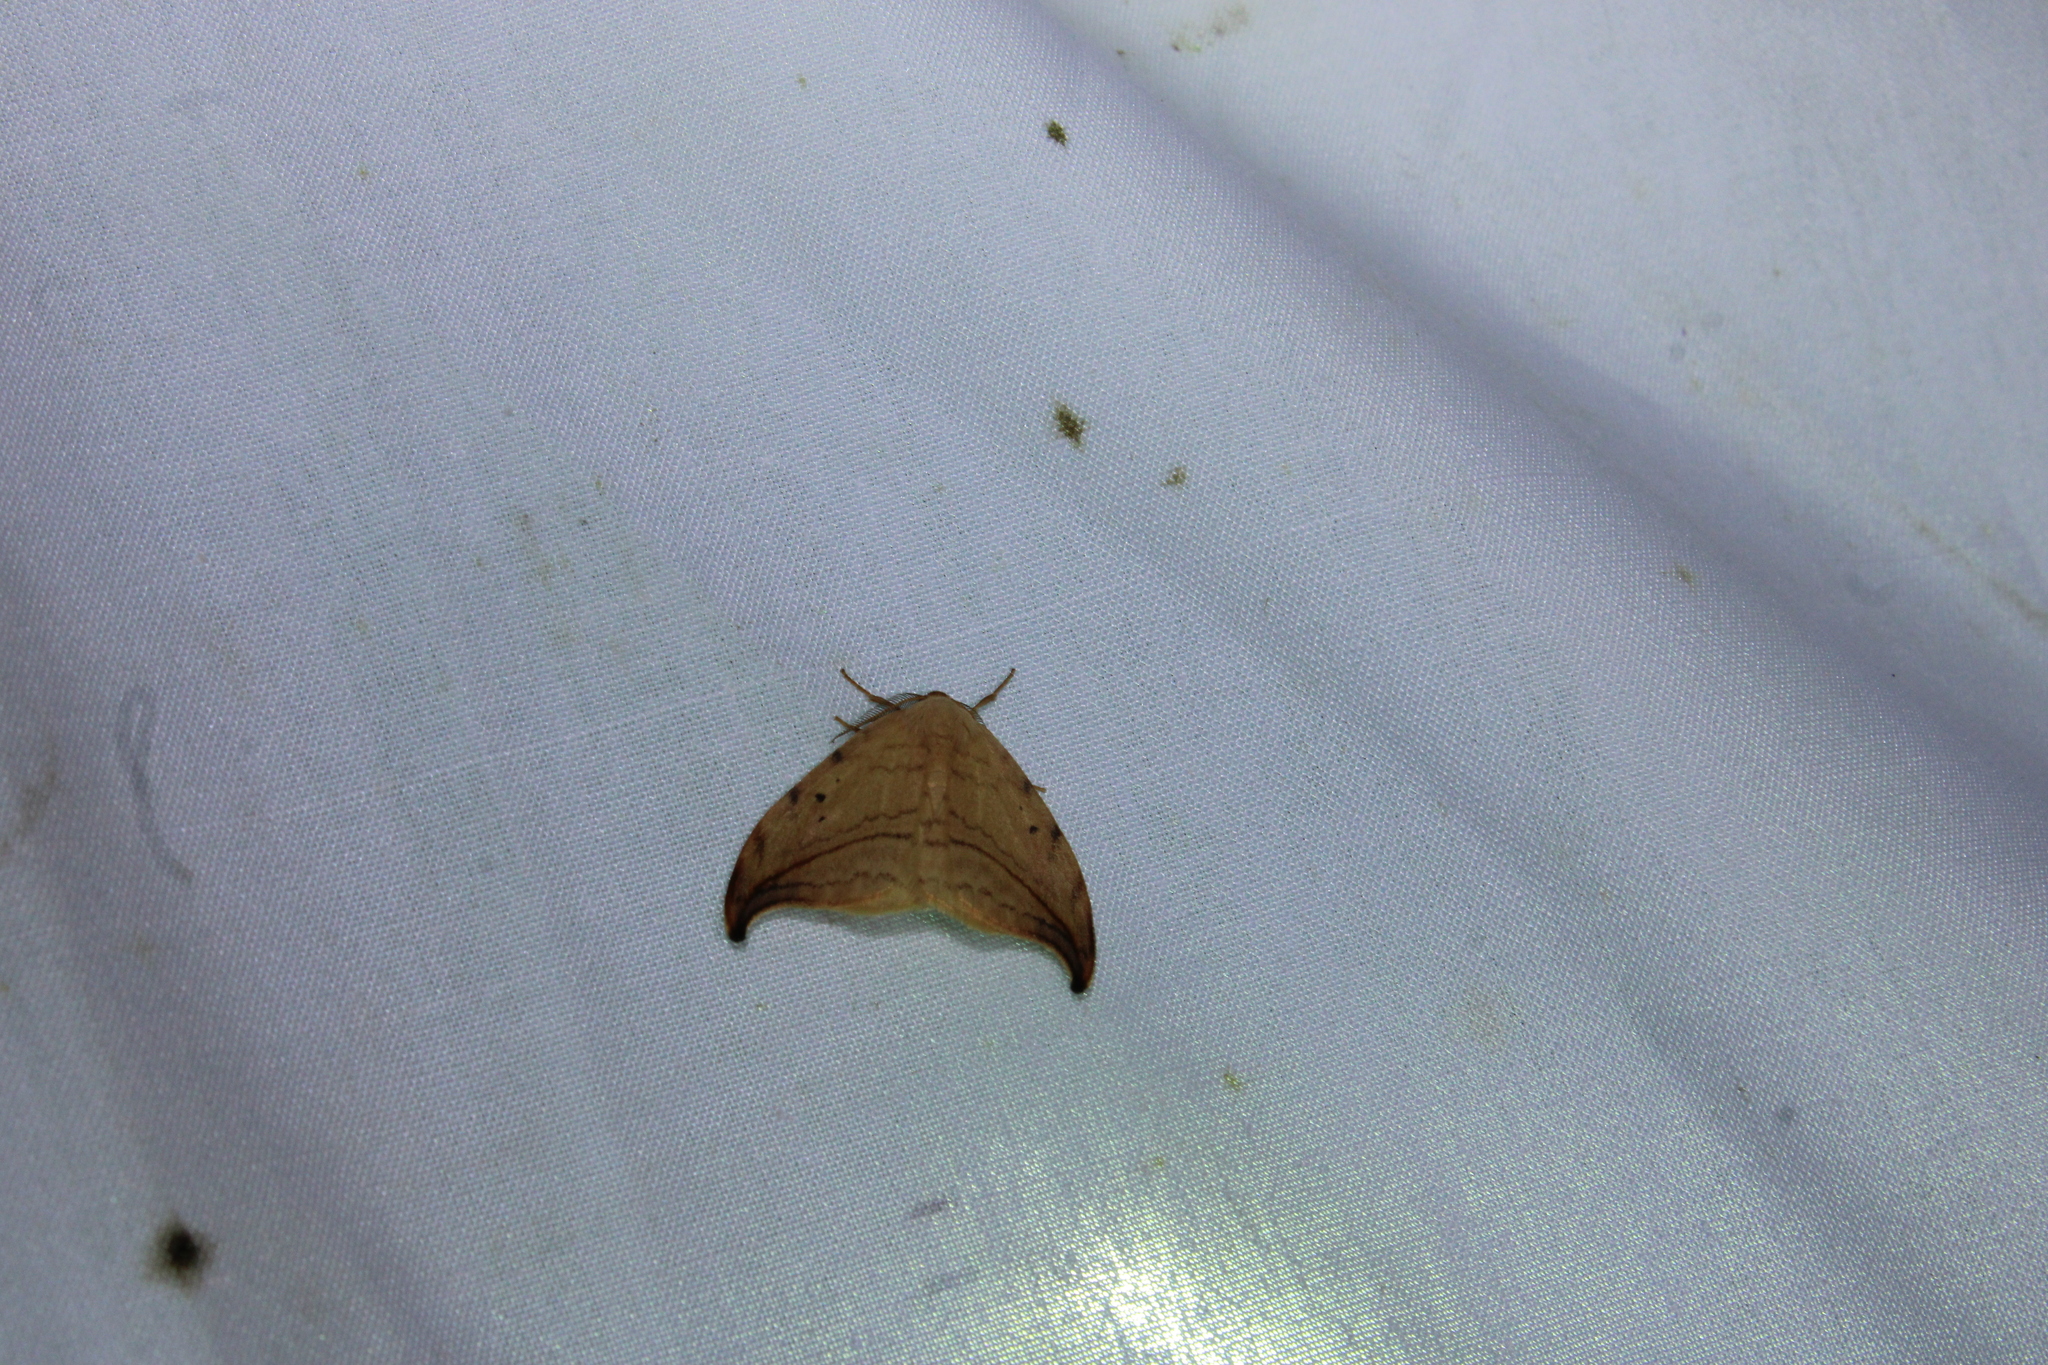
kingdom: Animalia
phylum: Arthropoda
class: Insecta
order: Lepidoptera
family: Drepanidae
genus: Drepana
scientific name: Drepana arcuata
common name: Arched hooktip moth
